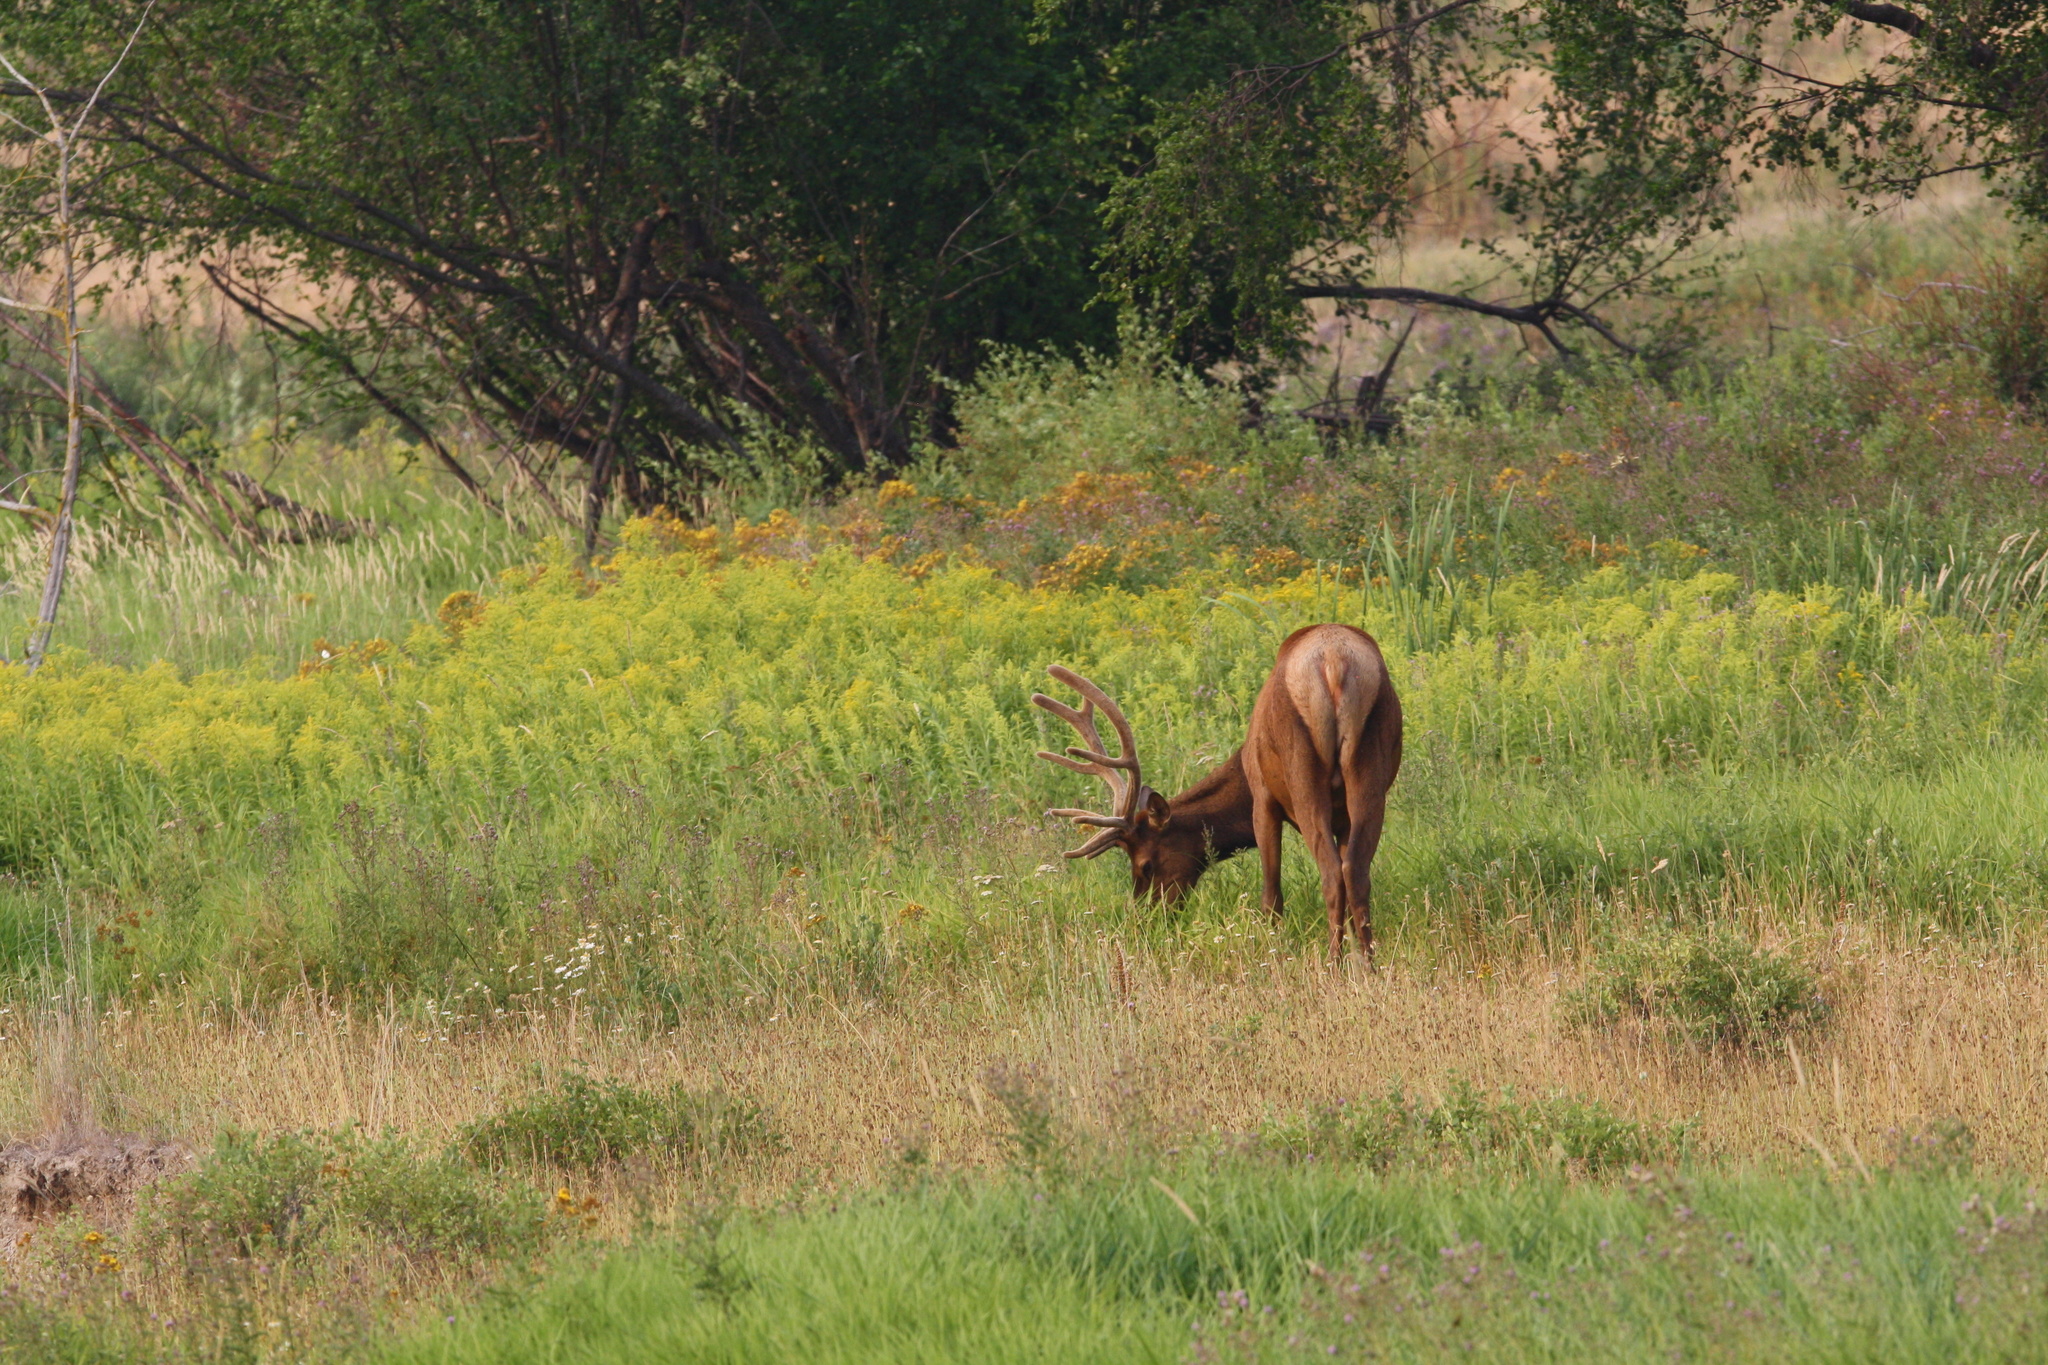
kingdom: Animalia
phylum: Chordata
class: Mammalia
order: Artiodactyla
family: Cervidae
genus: Cervus
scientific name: Cervus elaphus
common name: Red deer
